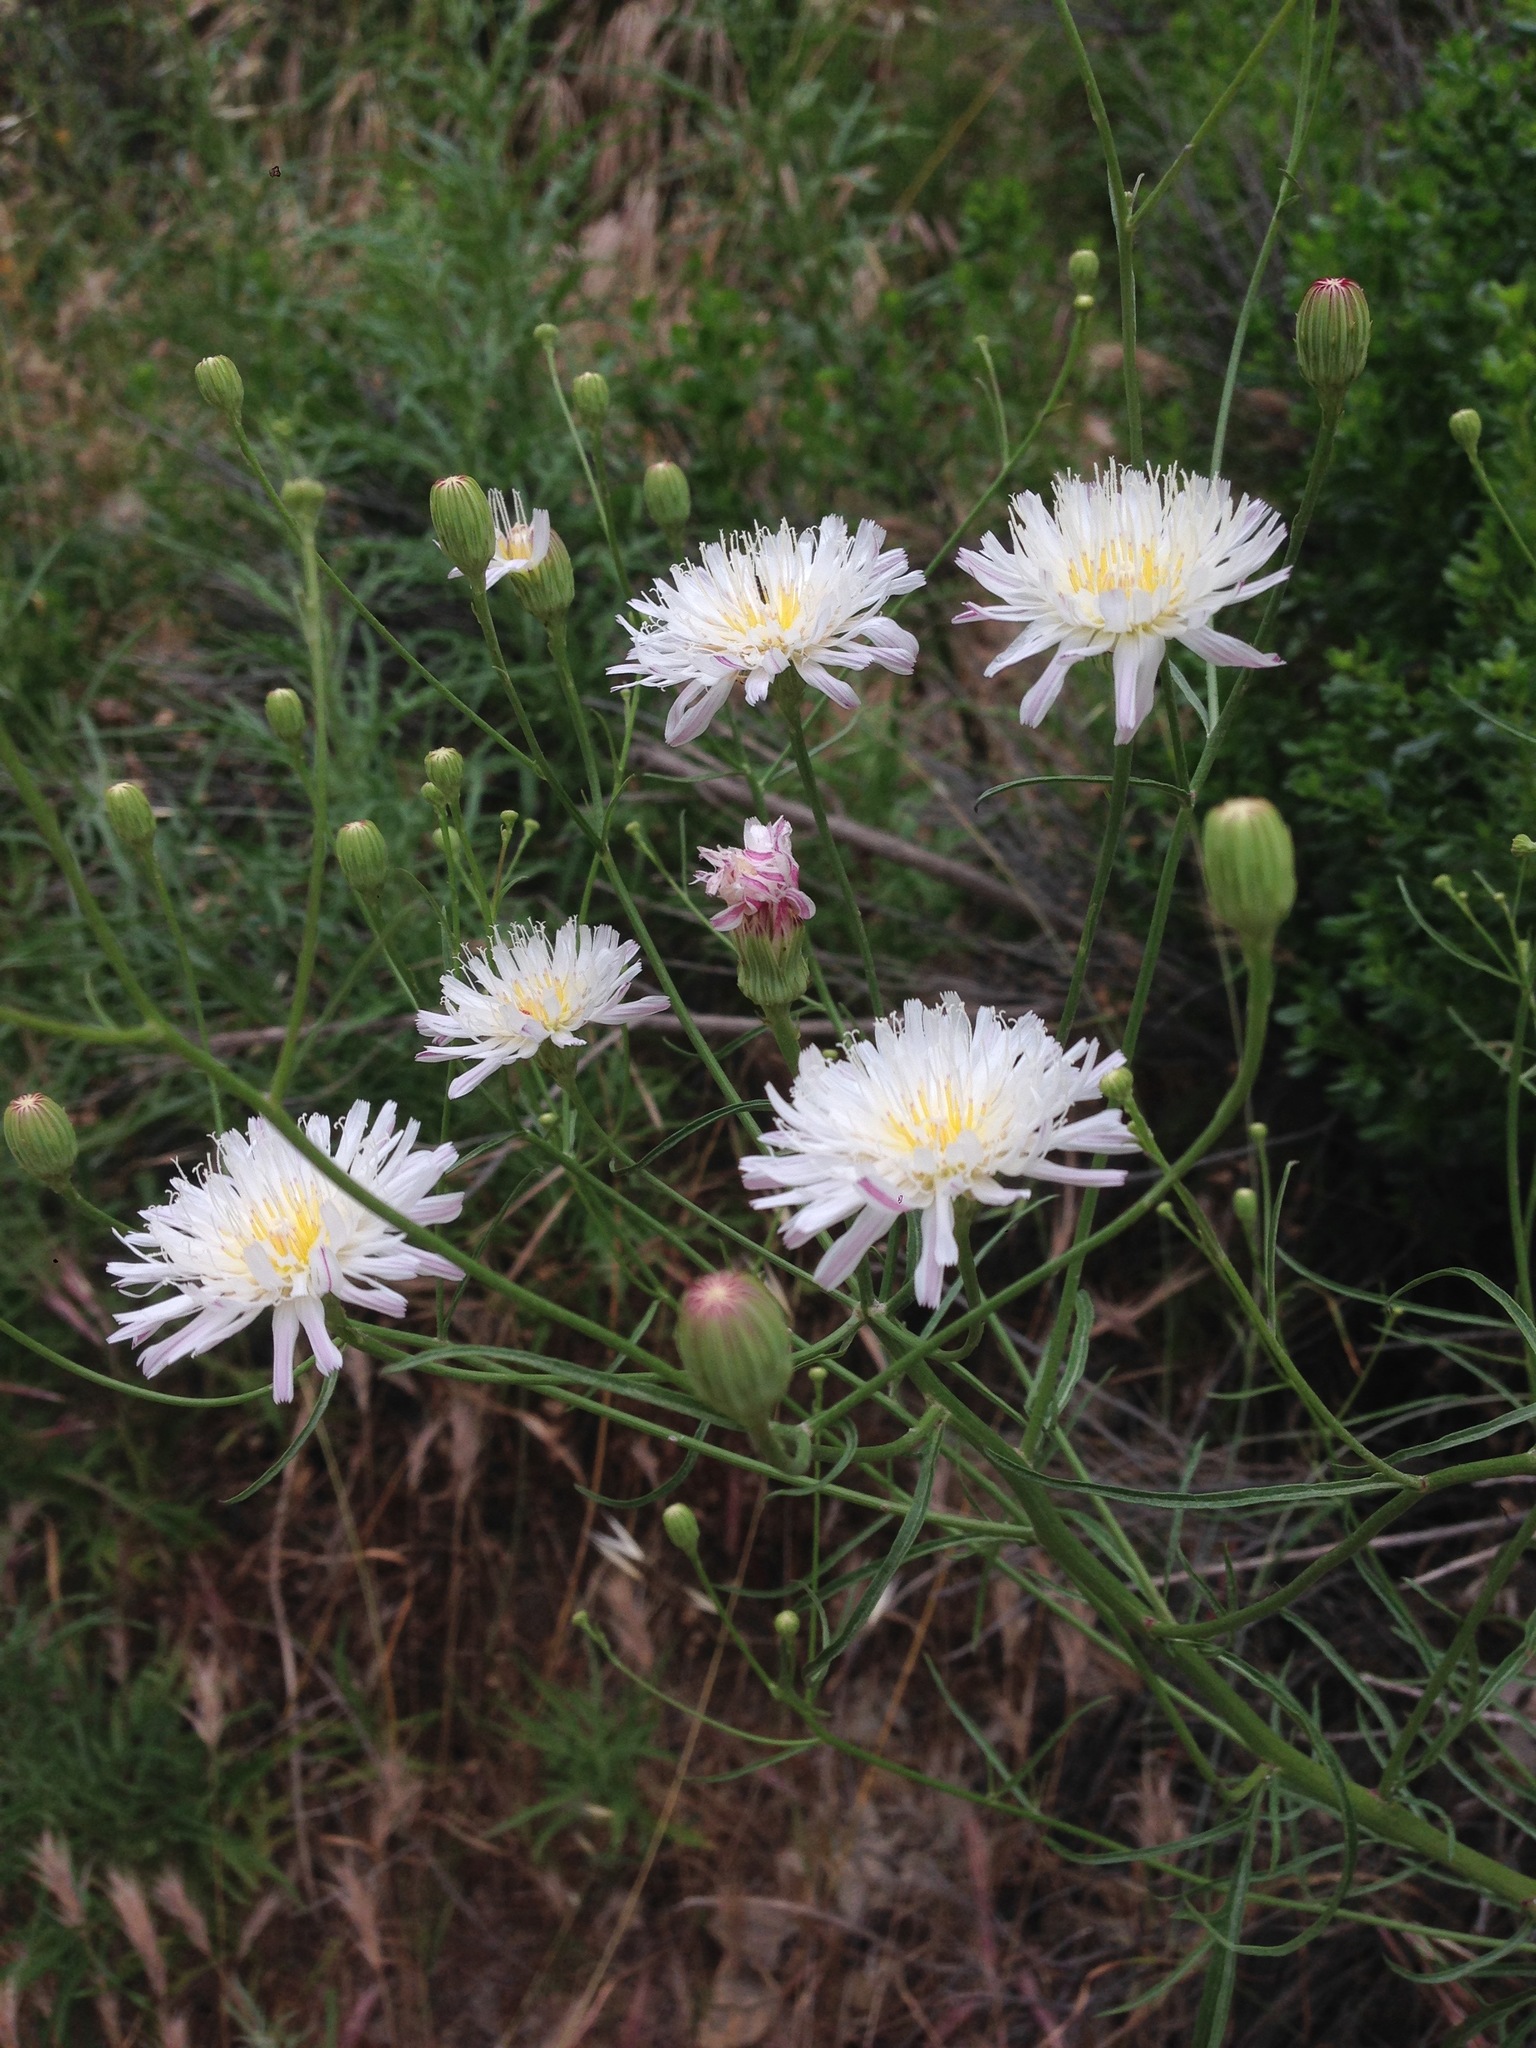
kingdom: Plantae
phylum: Tracheophyta
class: Magnoliopsida
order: Asterales
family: Asteraceae
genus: Malacothrix
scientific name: Malacothrix saxatilis
